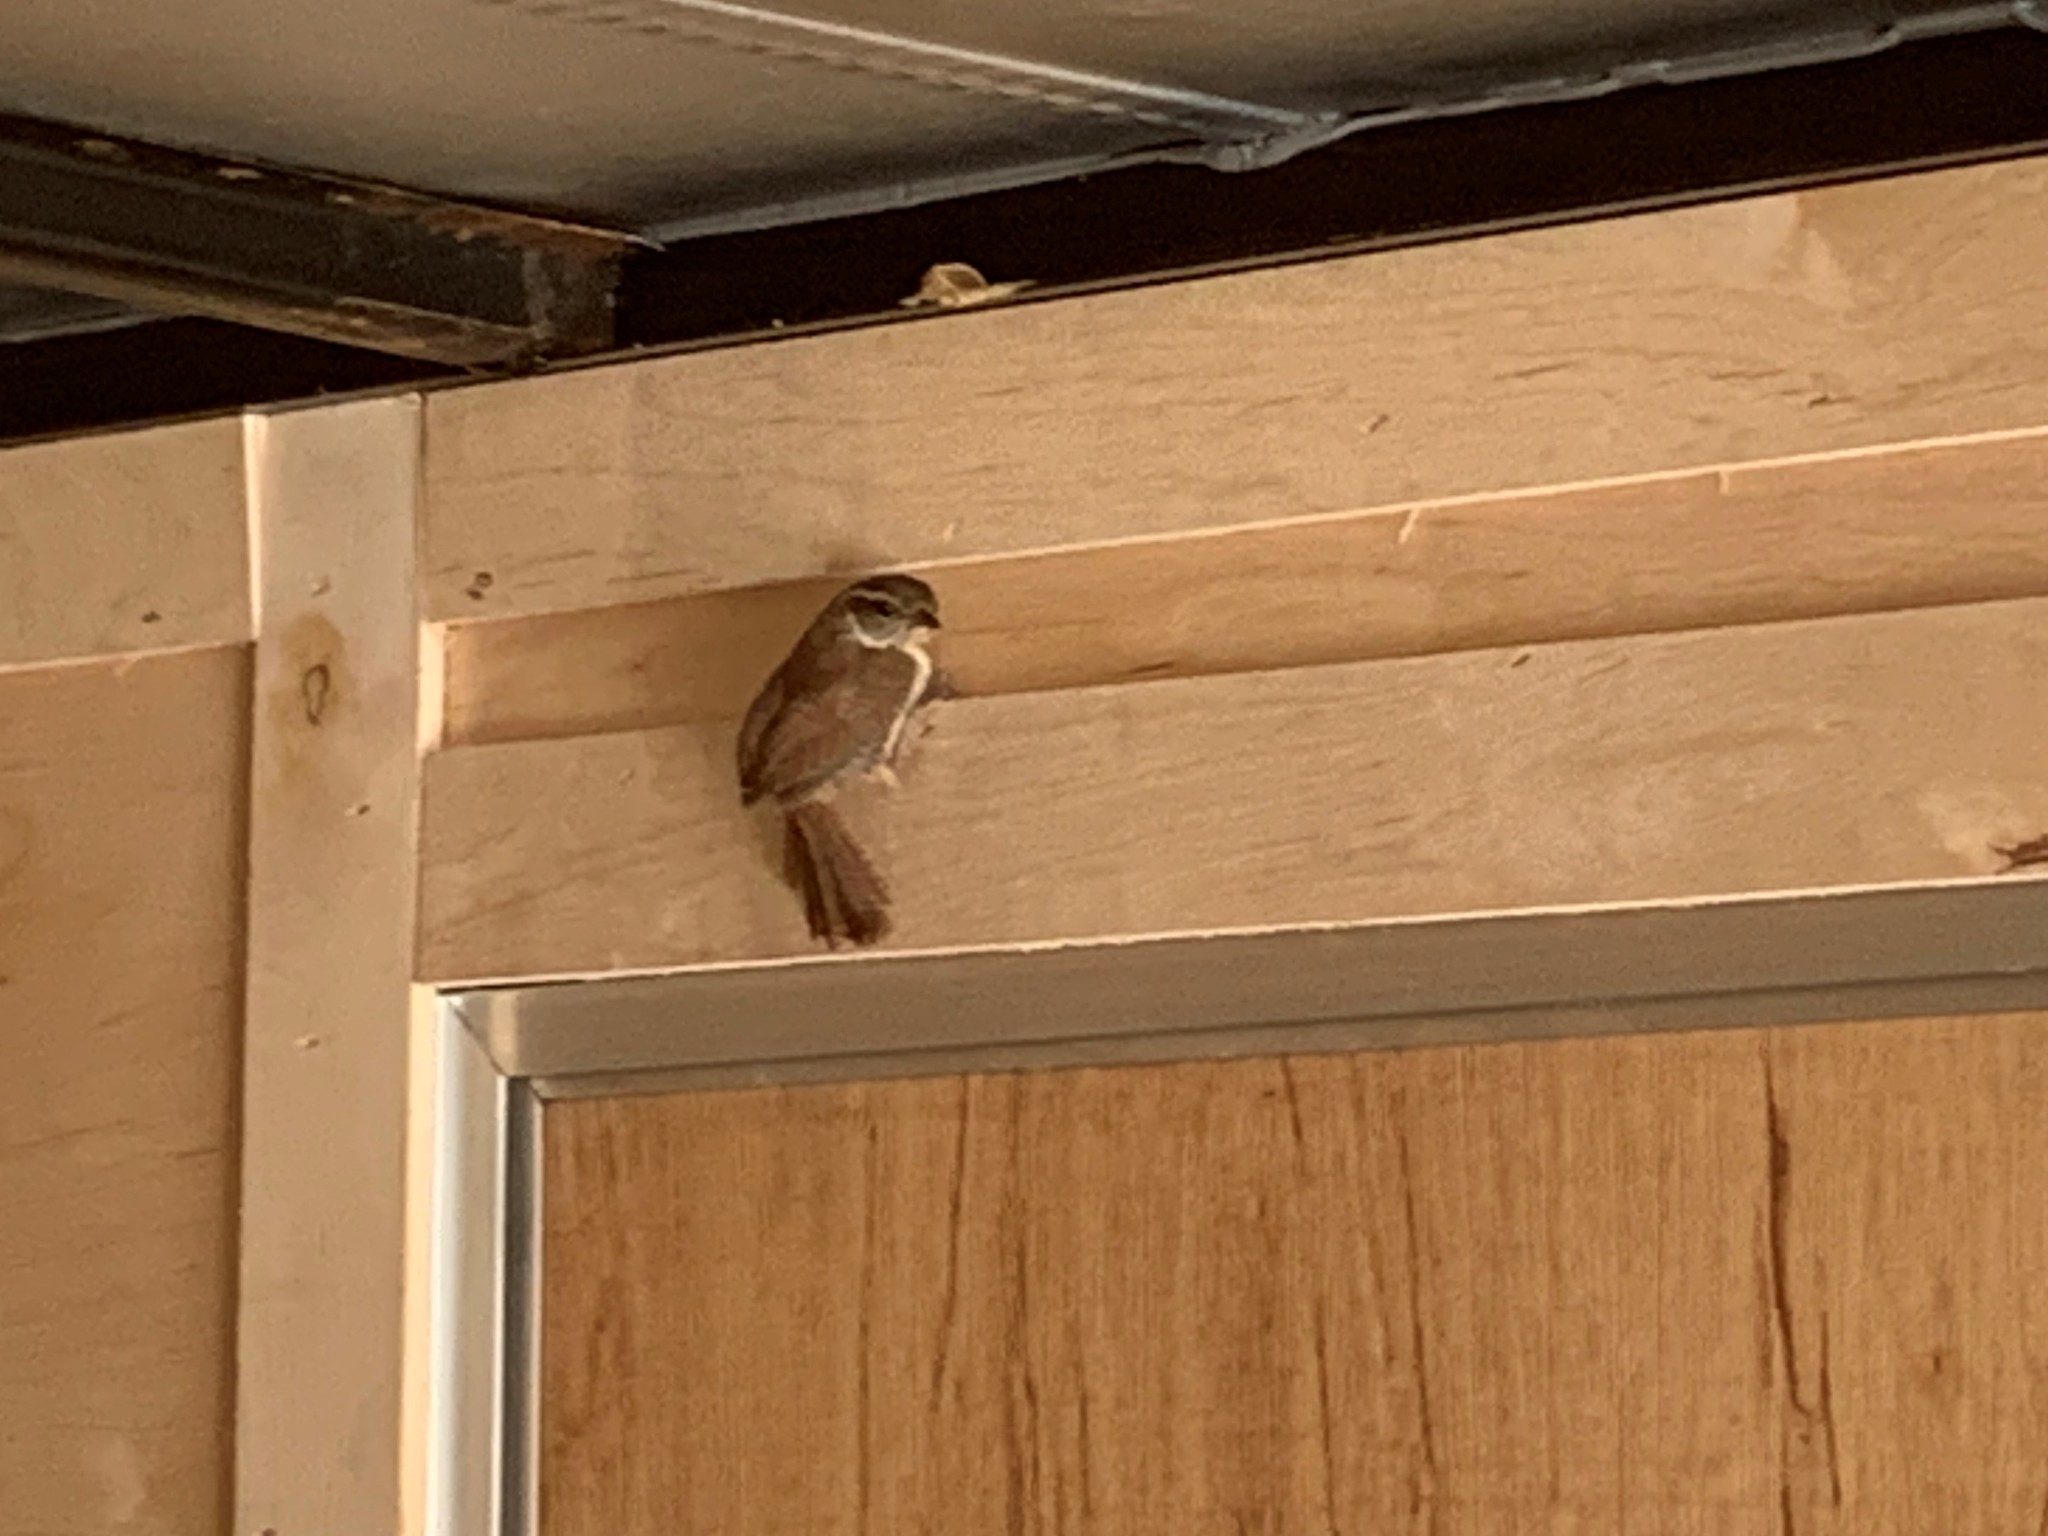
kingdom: Animalia
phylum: Chordata
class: Aves
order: Passeriformes
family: Troglodytidae
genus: Thryothorus
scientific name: Thryothorus ludovicianus
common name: Carolina wren
